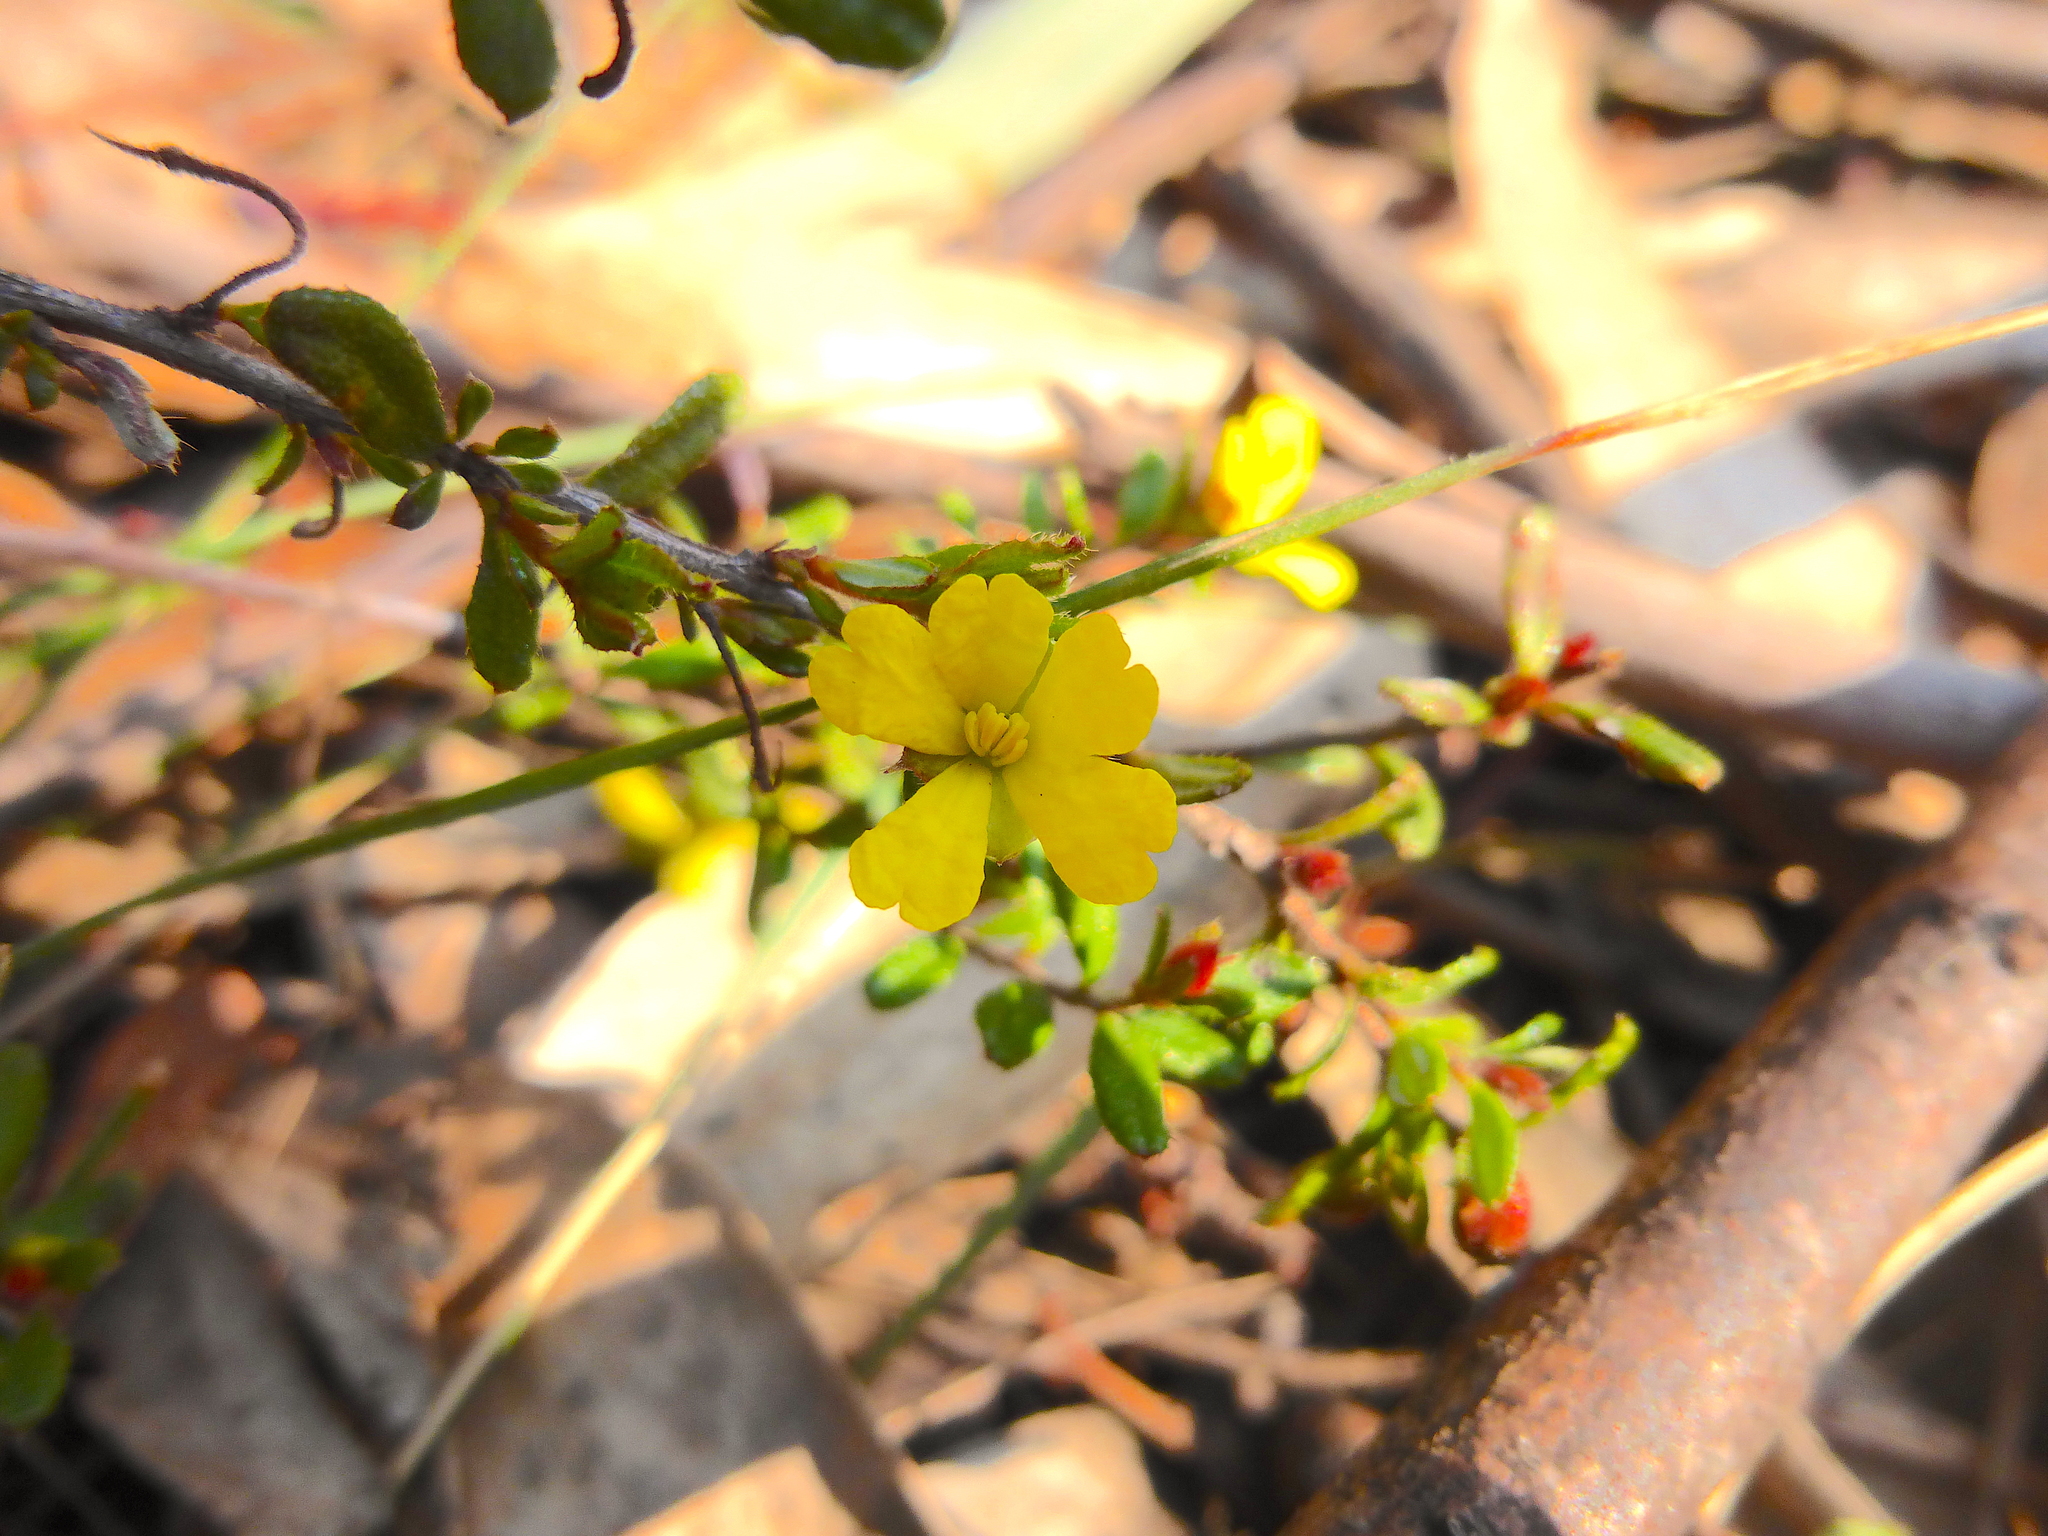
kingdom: Plantae
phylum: Tracheophyta
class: Magnoliopsida
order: Dilleniales
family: Dilleniaceae
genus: Hibbertia
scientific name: Hibbertia empetrifolia
